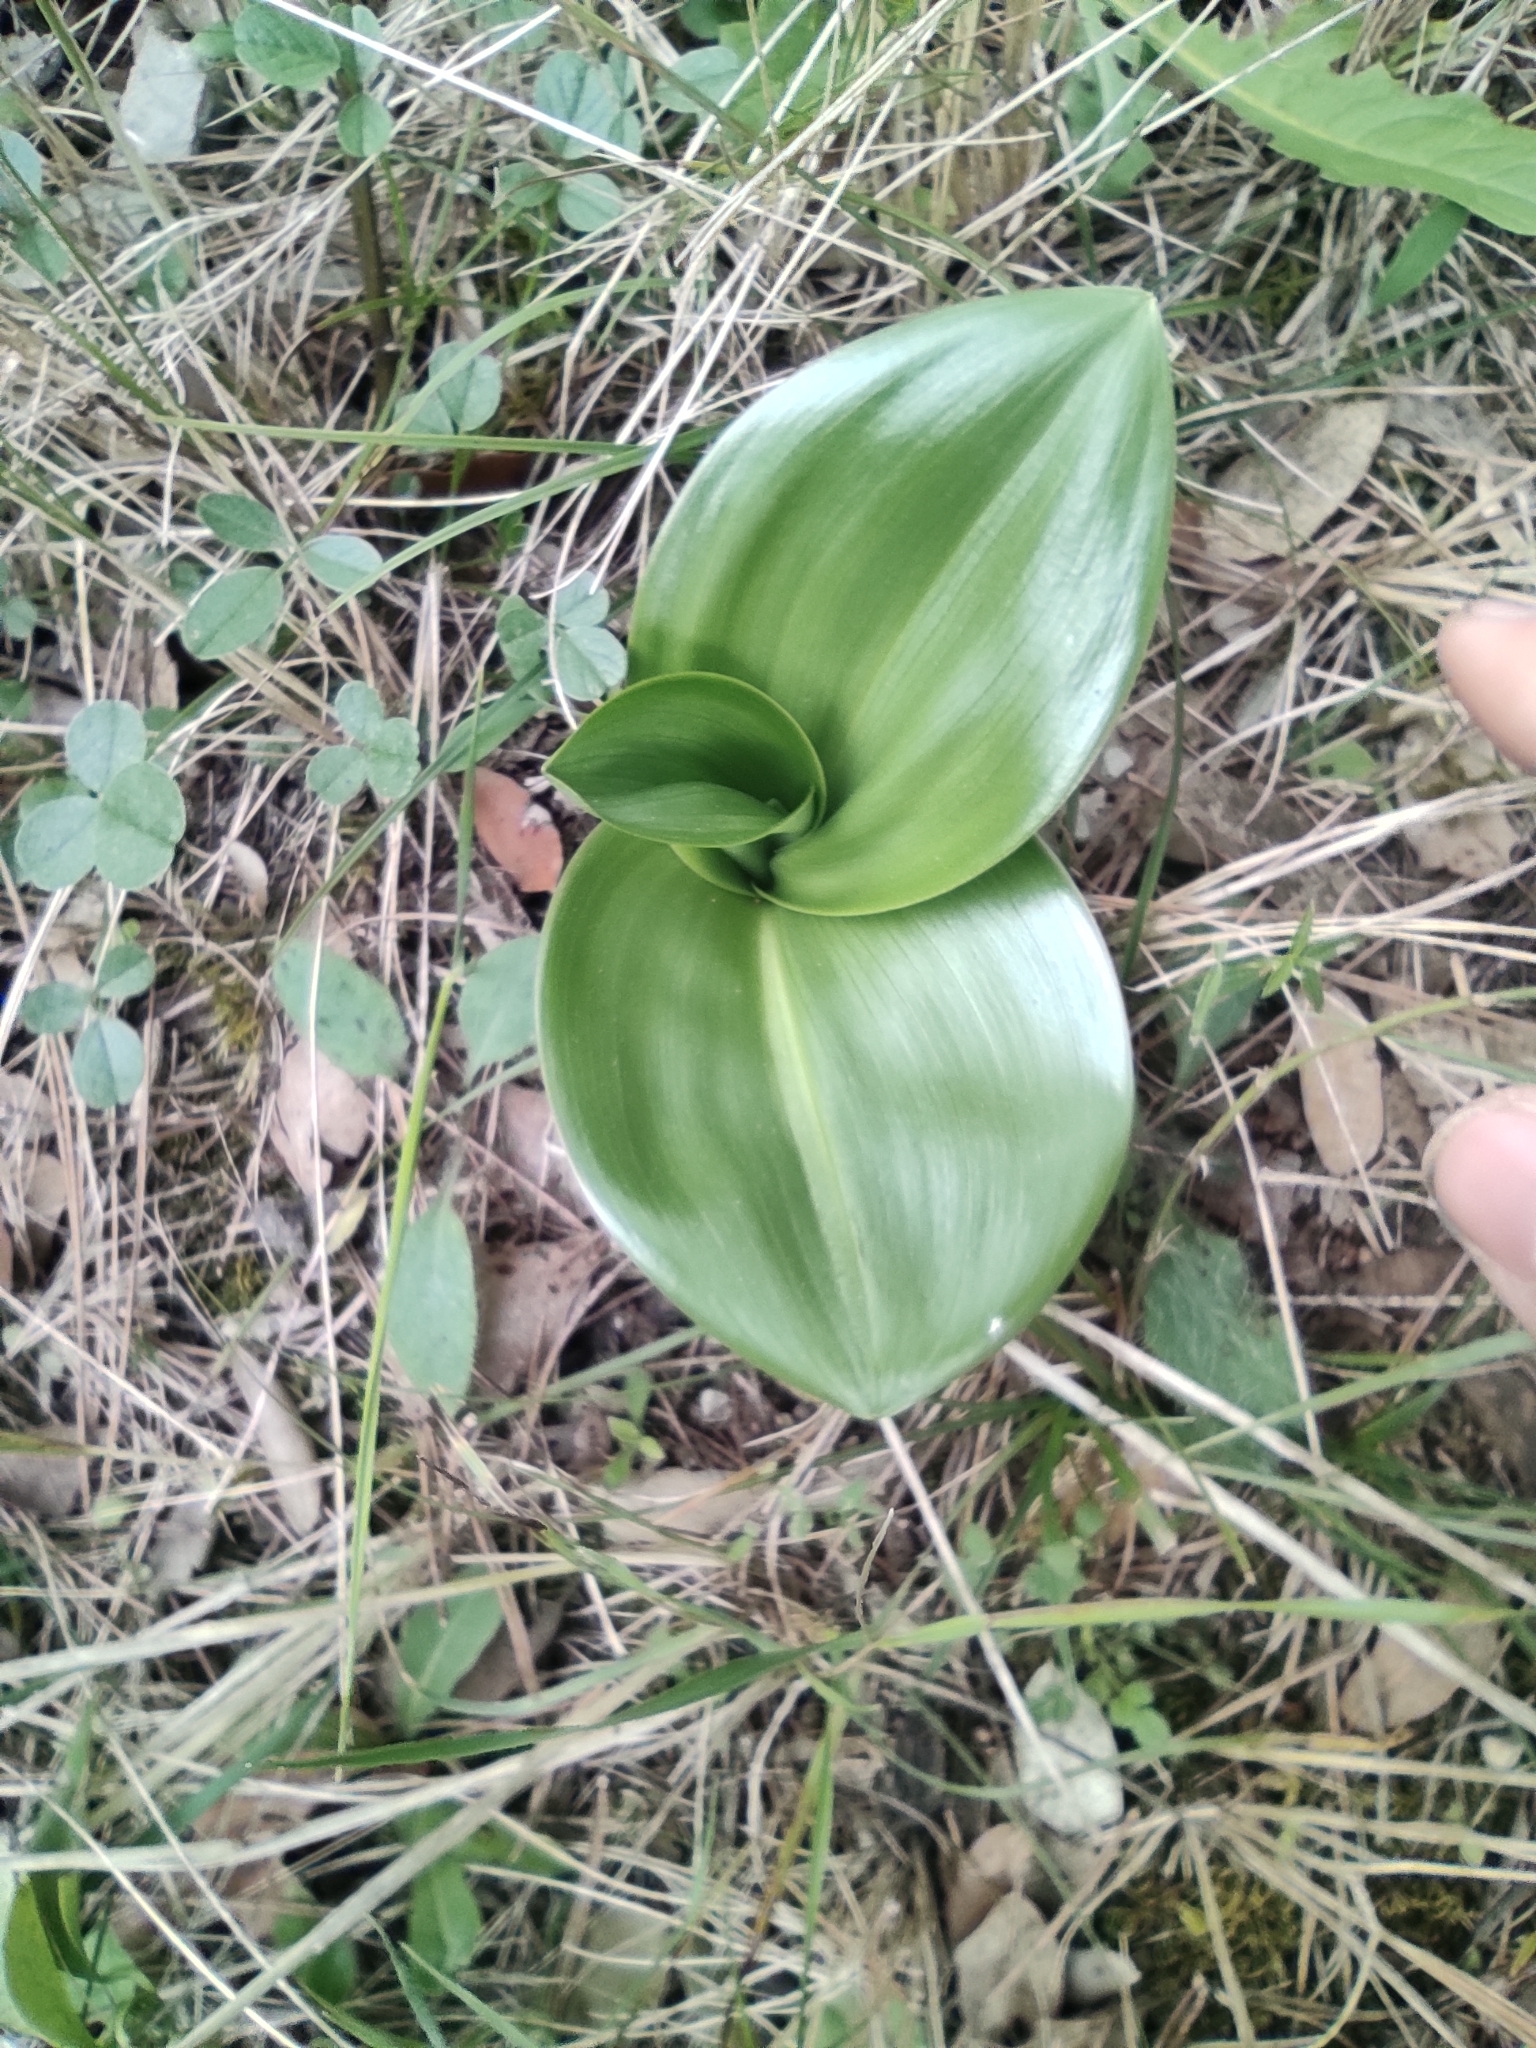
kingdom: Plantae
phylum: Tracheophyta
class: Liliopsida
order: Asparagales
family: Orchidaceae
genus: Himantoglossum
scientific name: Himantoglossum robertianum
